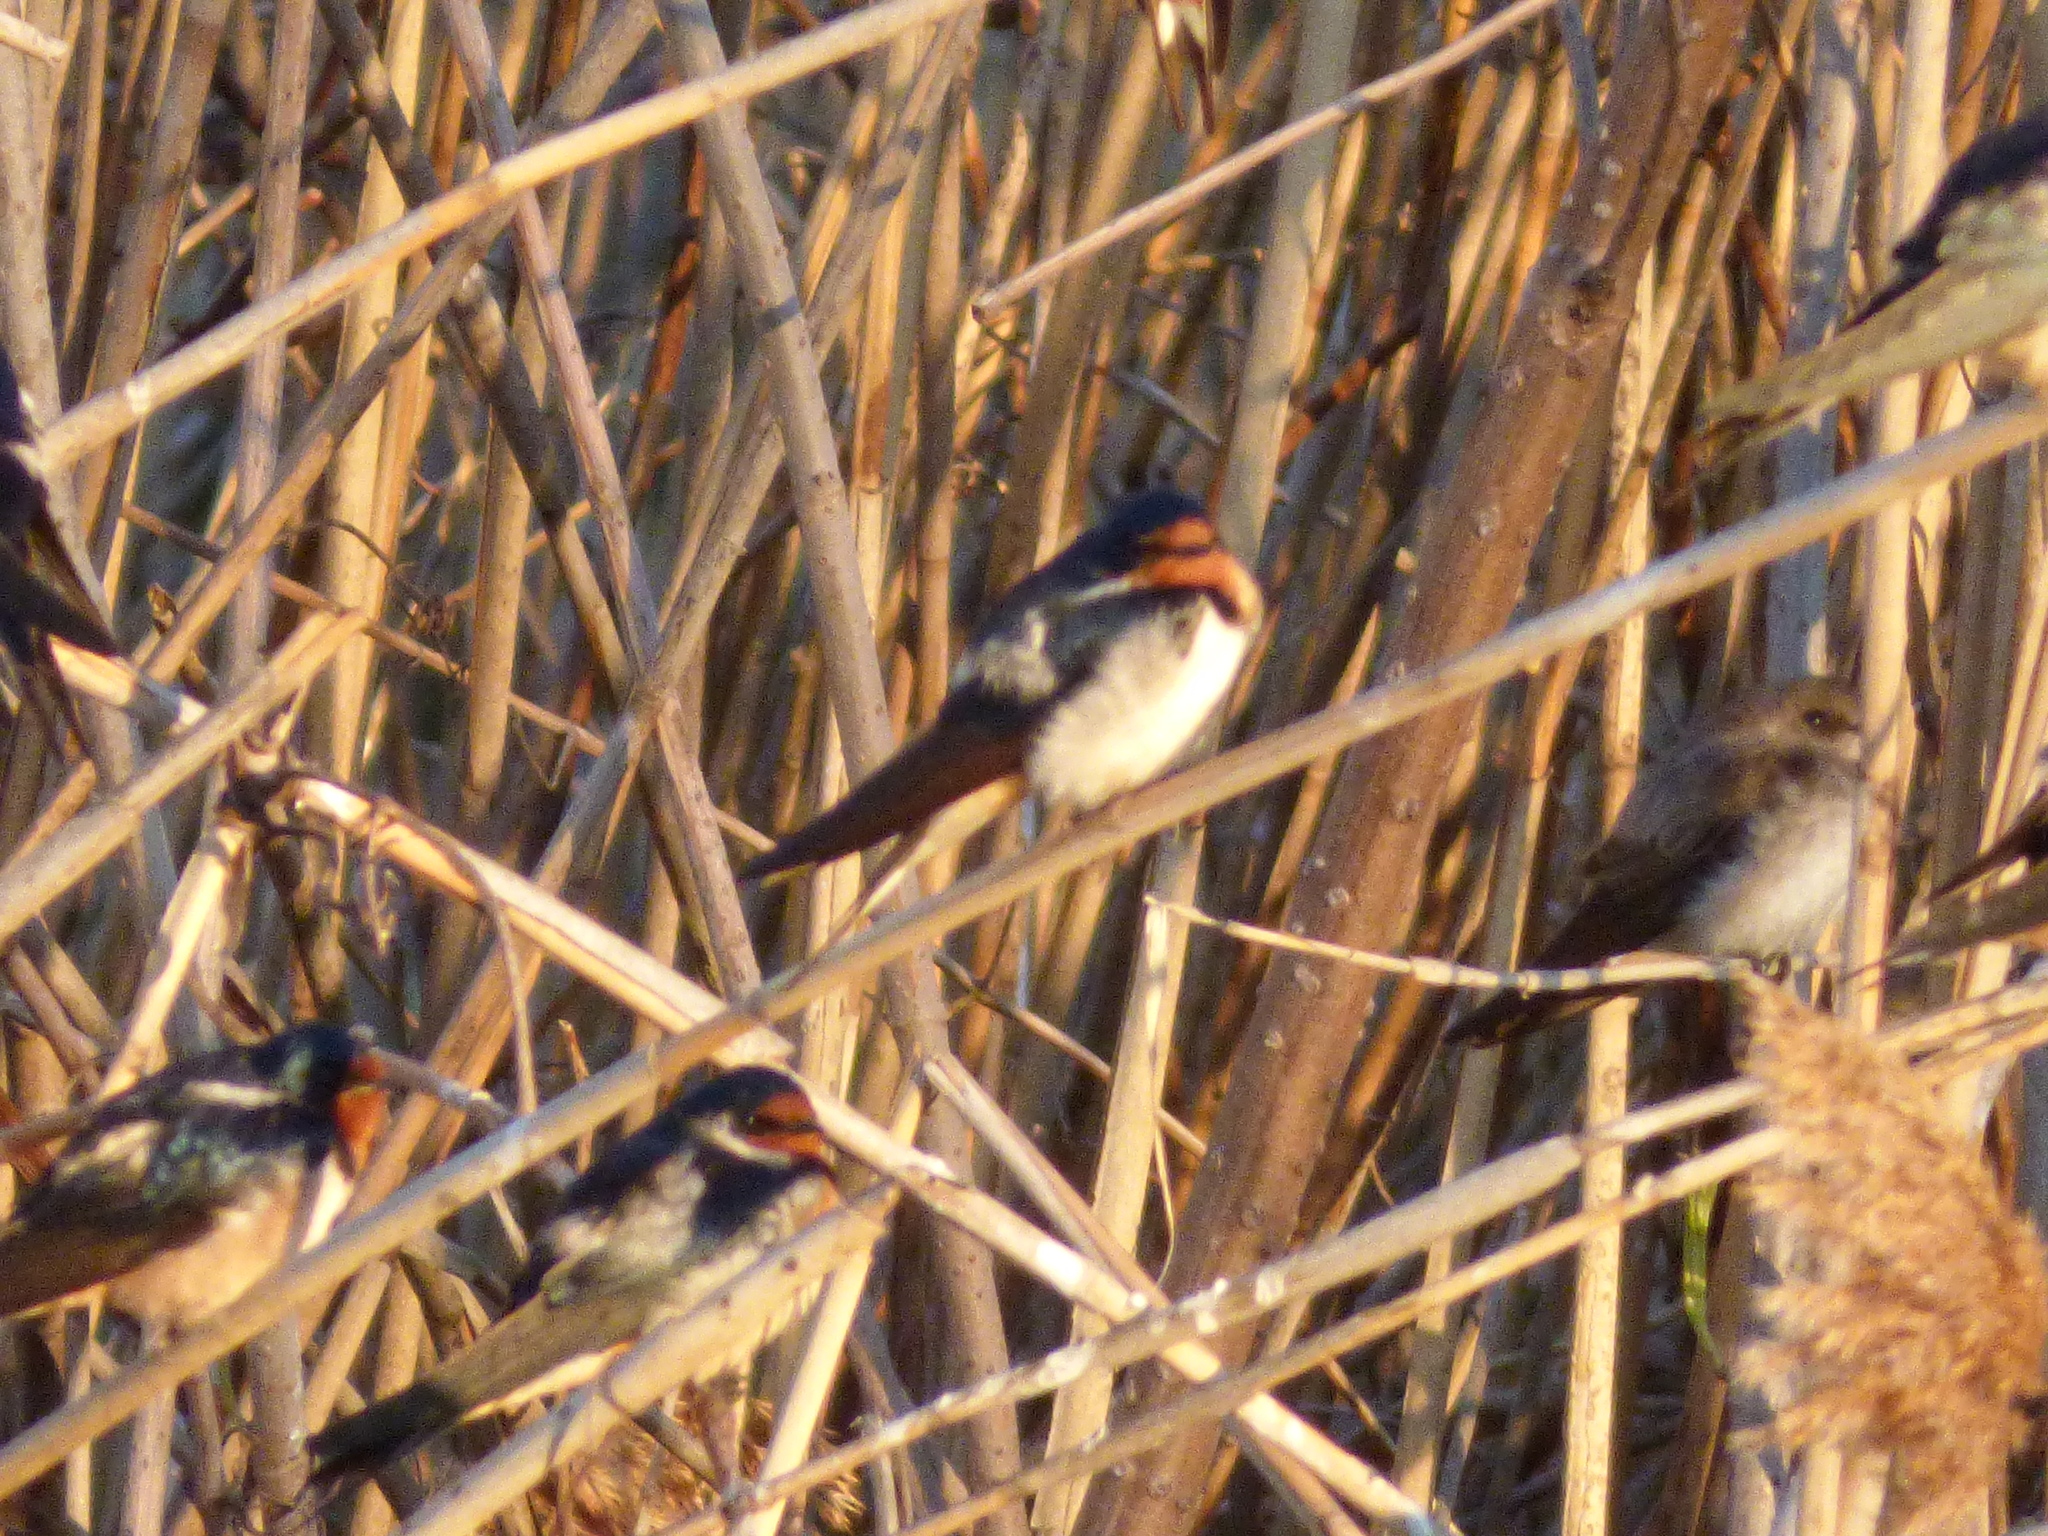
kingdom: Animalia
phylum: Chordata
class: Aves
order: Passeriformes
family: Hirundinidae
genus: Stelgidopteryx
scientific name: Stelgidopteryx serripennis
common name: Northern rough-winged swallow
